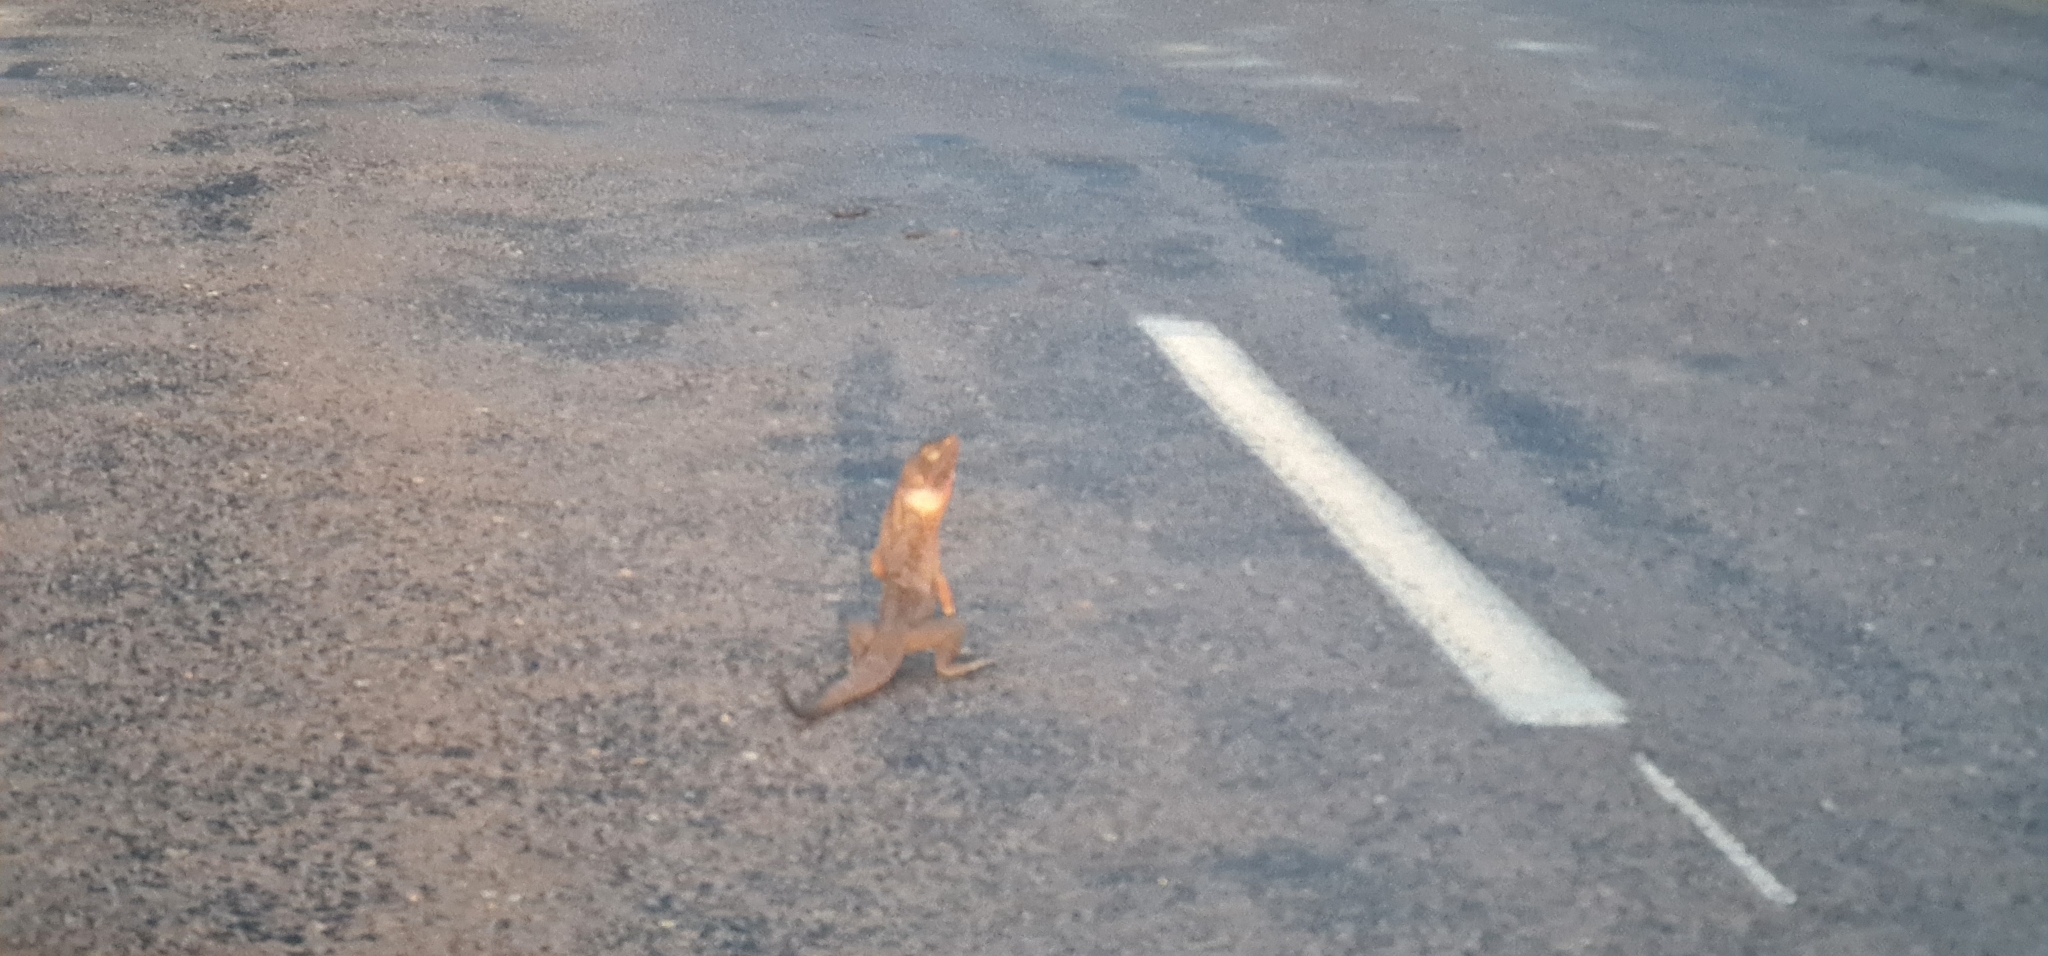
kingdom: Animalia
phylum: Chordata
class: Squamata
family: Agamidae
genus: Chlamydosaurus
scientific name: Chlamydosaurus kingii
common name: Frilled lizard
